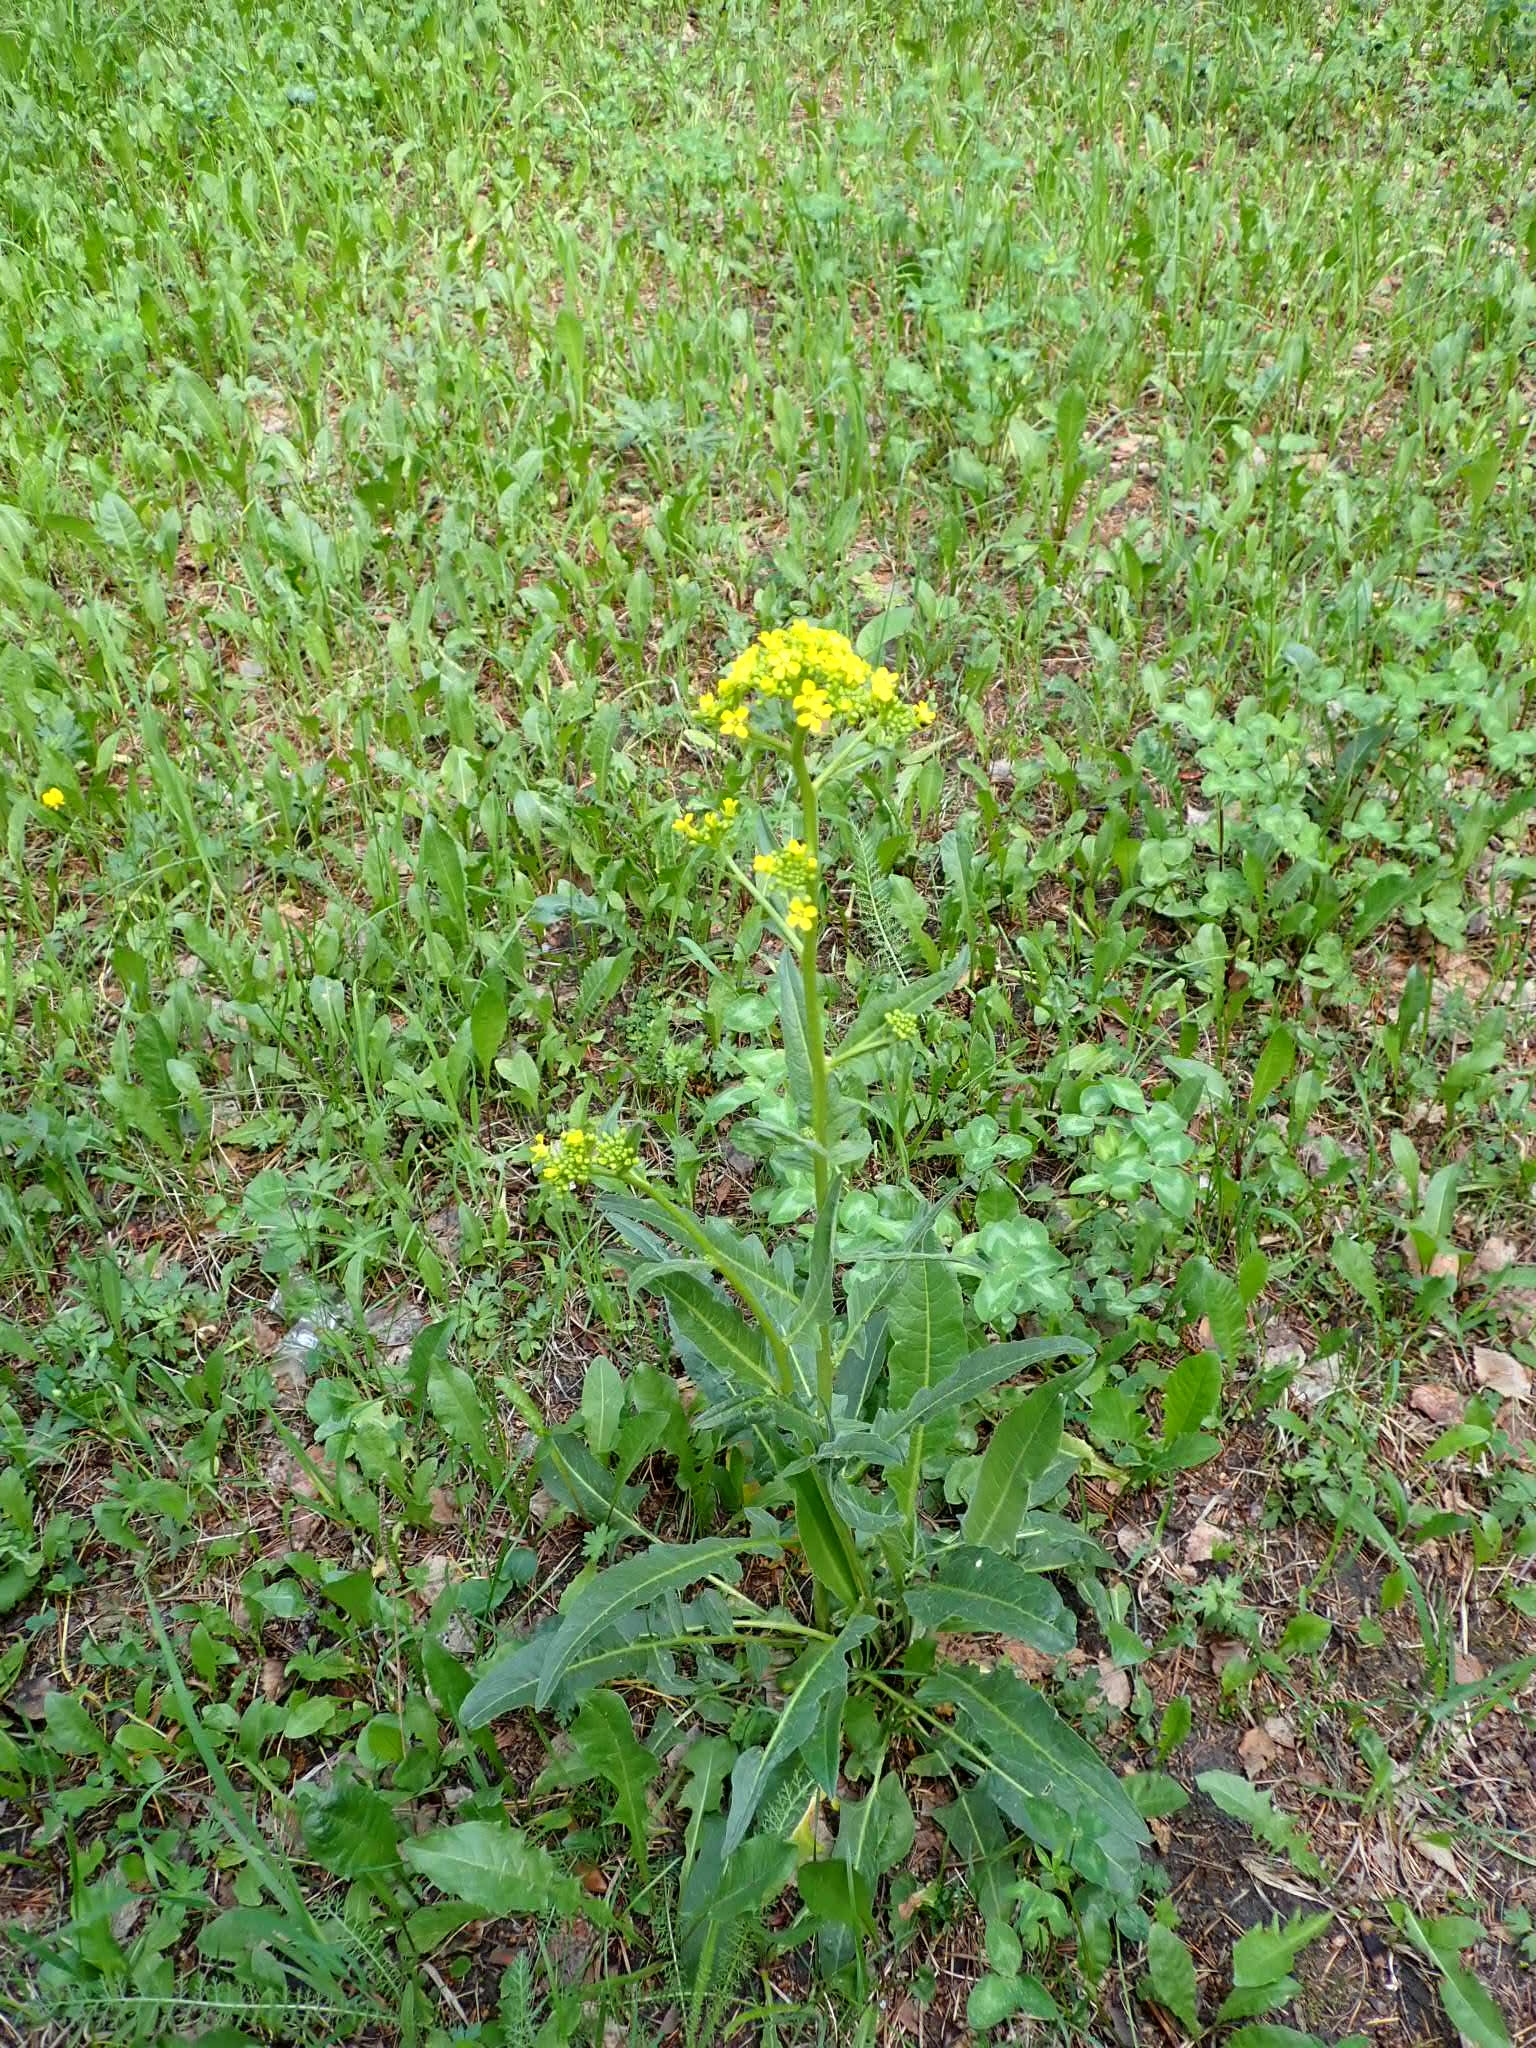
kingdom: Plantae
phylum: Tracheophyta
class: Magnoliopsida
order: Brassicales
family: Brassicaceae
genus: Sisymbrium
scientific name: Sisymbrium loeselii
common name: False london-rocket
